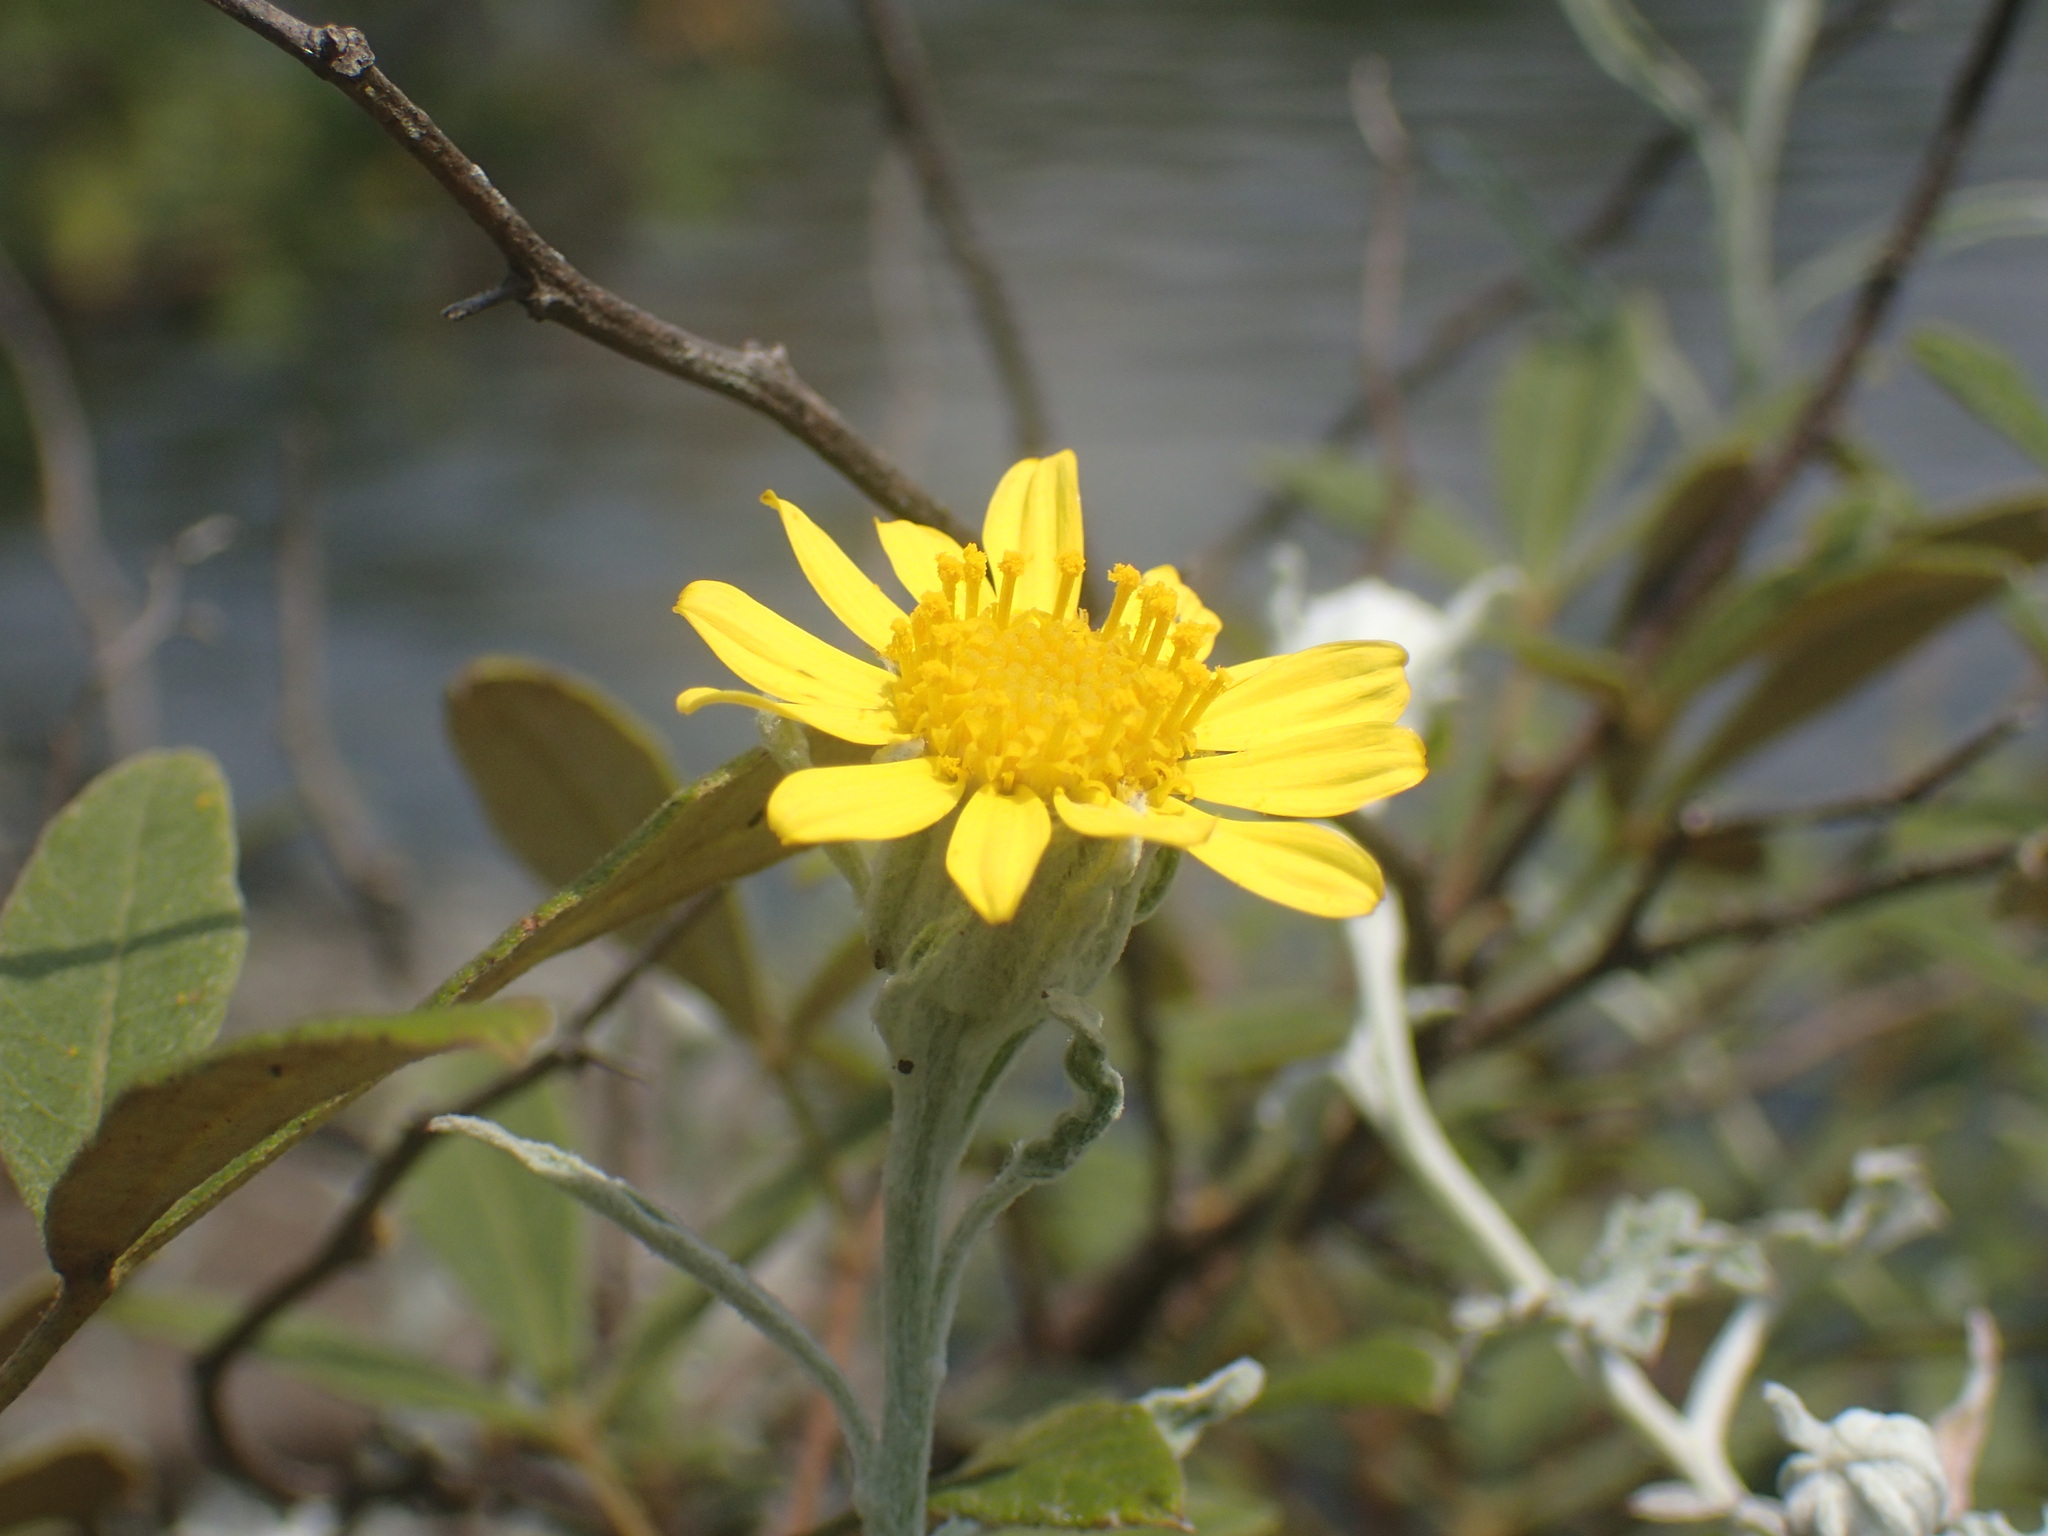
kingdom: Plantae
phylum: Tracheophyta
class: Magnoliopsida
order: Asterales
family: Asteraceae
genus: Cineraria
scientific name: Cineraria albicans
